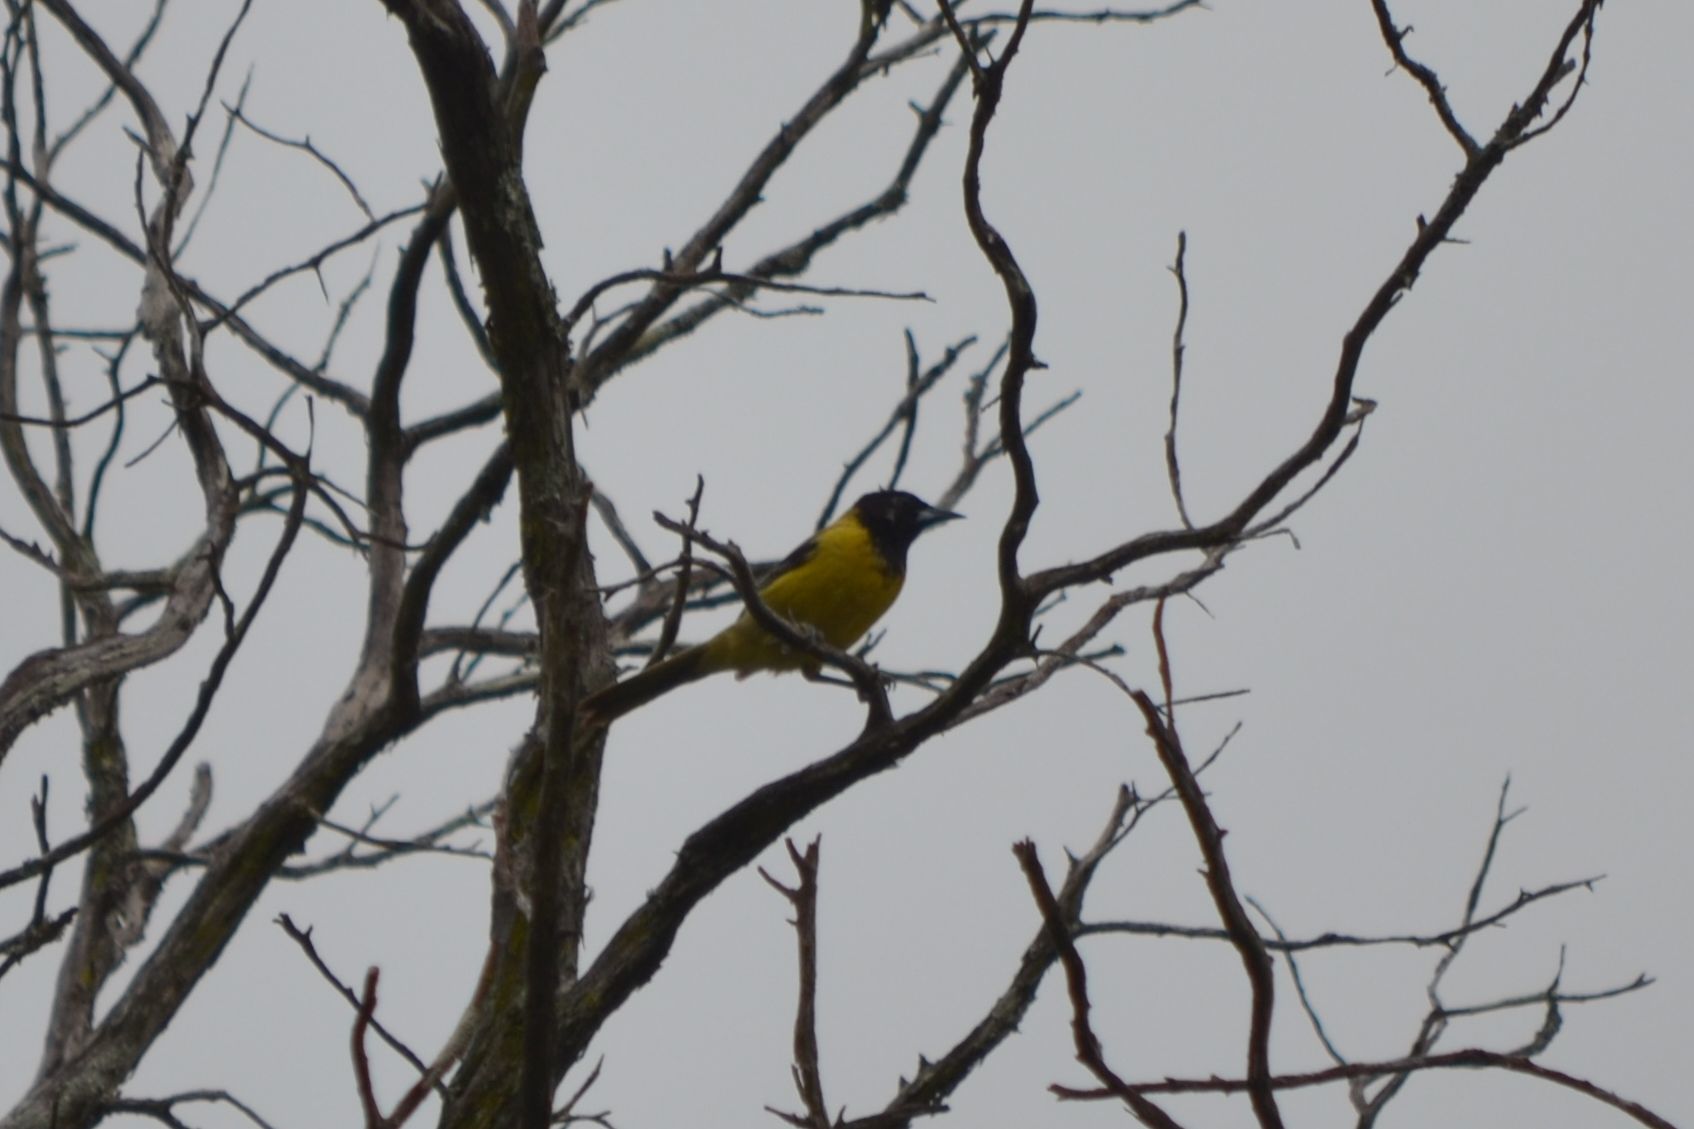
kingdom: Animalia
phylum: Chordata
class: Aves
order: Passeriformes
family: Icteridae
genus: Icterus
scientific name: Icterus graduacauda
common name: Audubon's oriole
